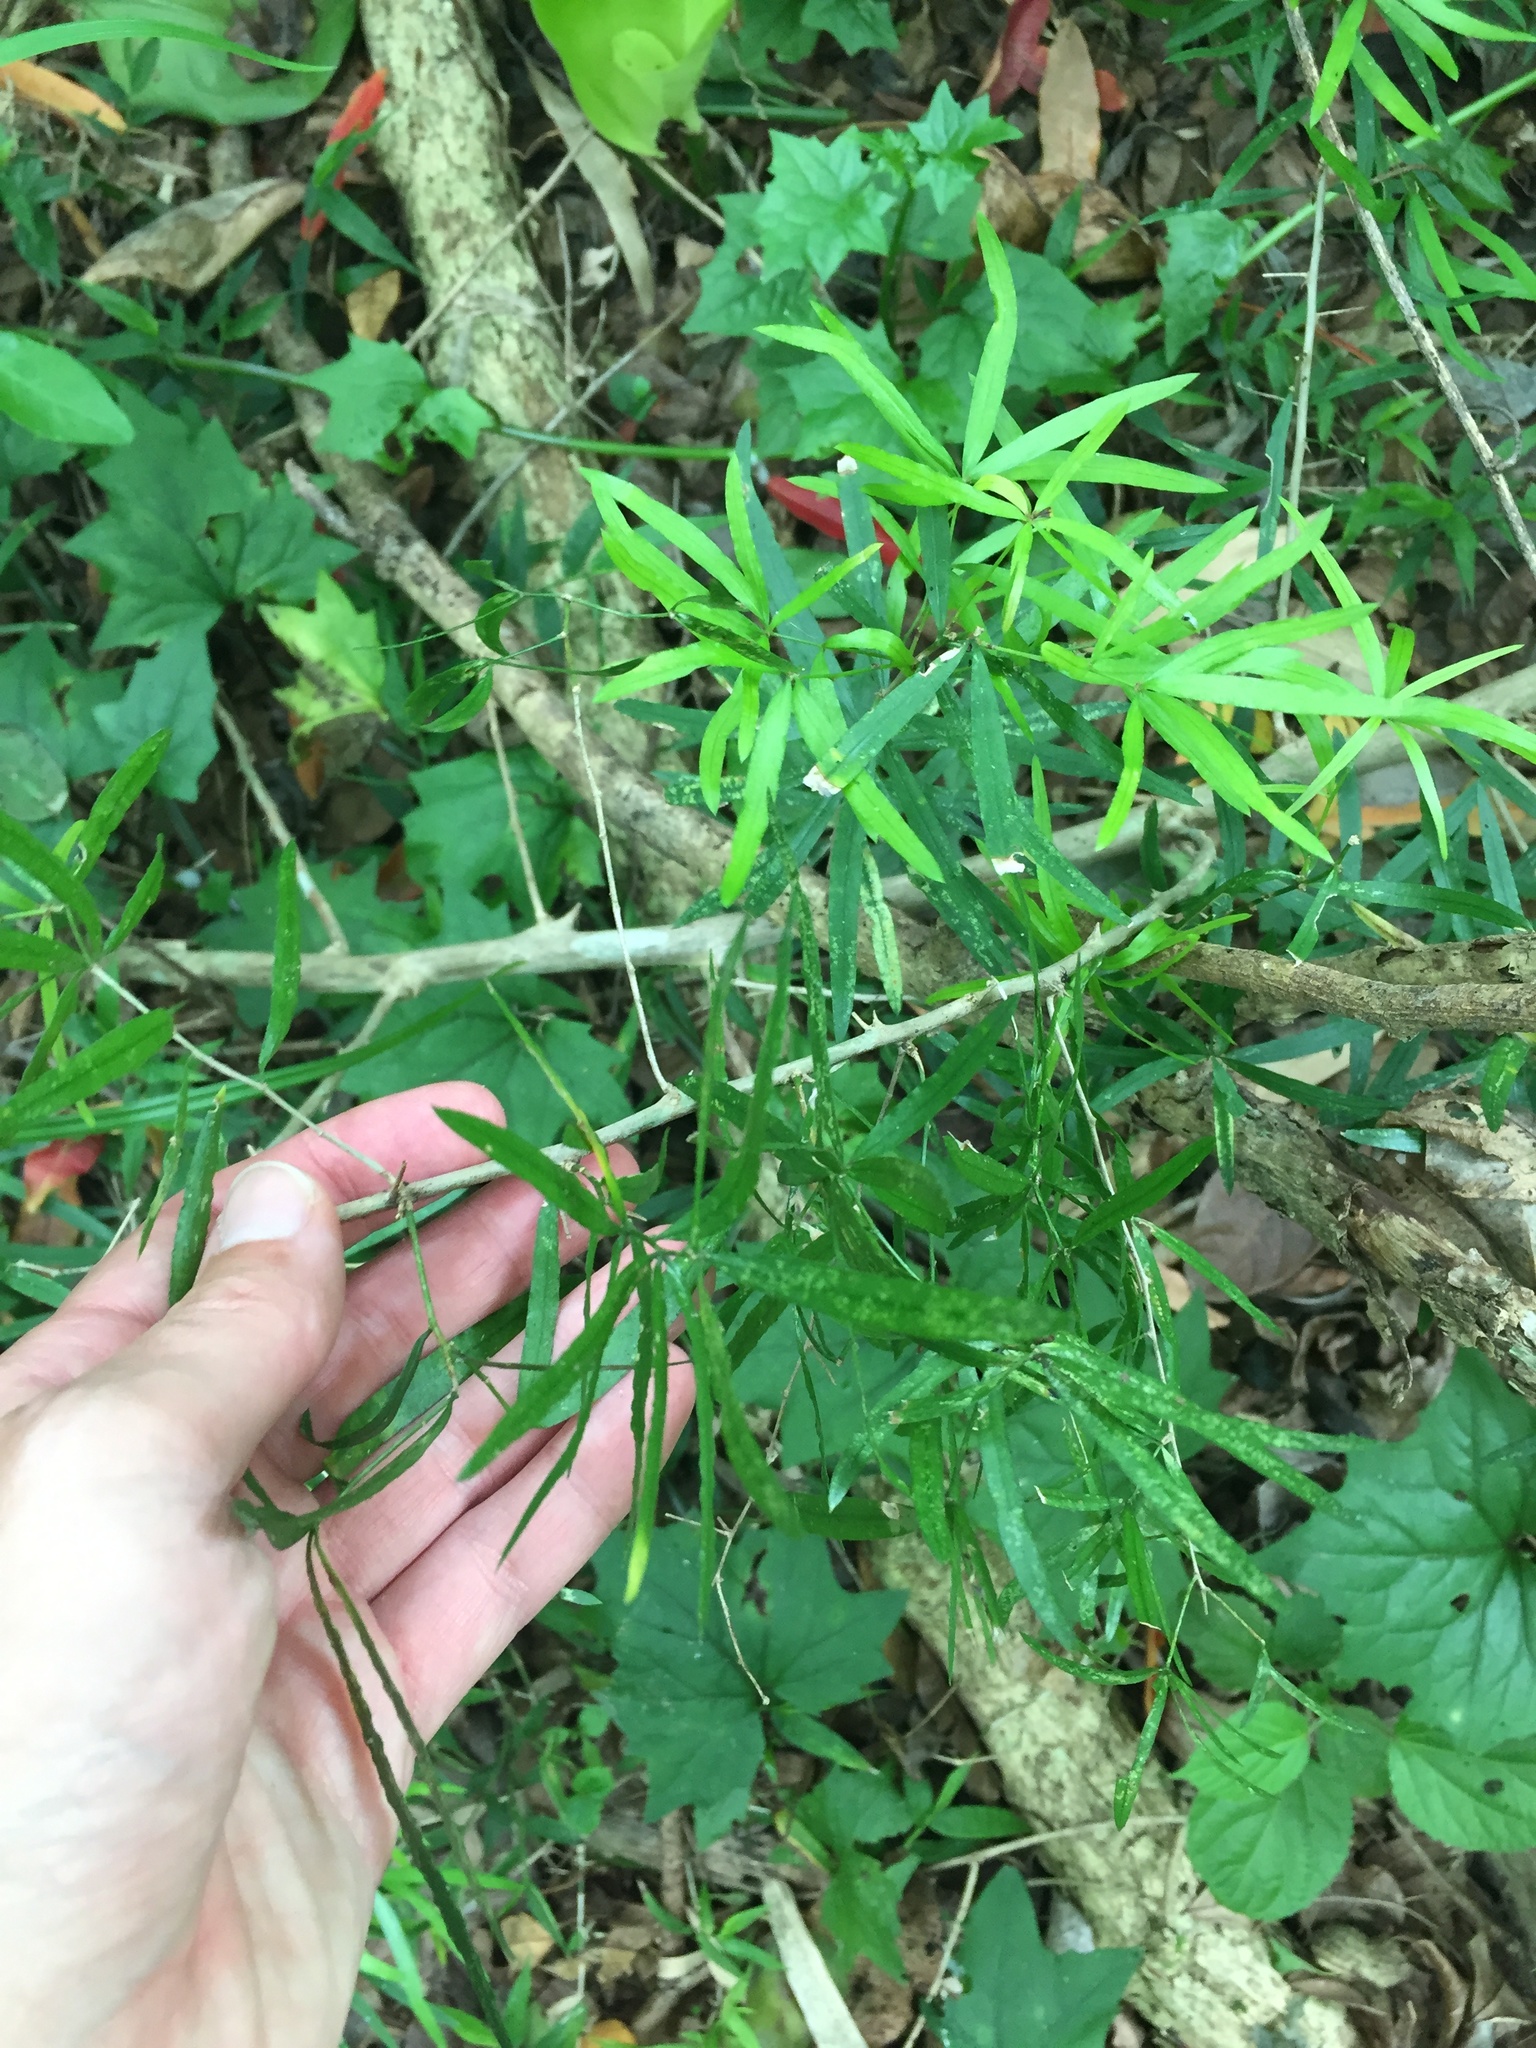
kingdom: Plantae
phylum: Tracheophyta
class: Liliopsida
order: Asparagales
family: Asparagaceae
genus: Asparagus
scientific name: Asparagus falcatus
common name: Asparagus
